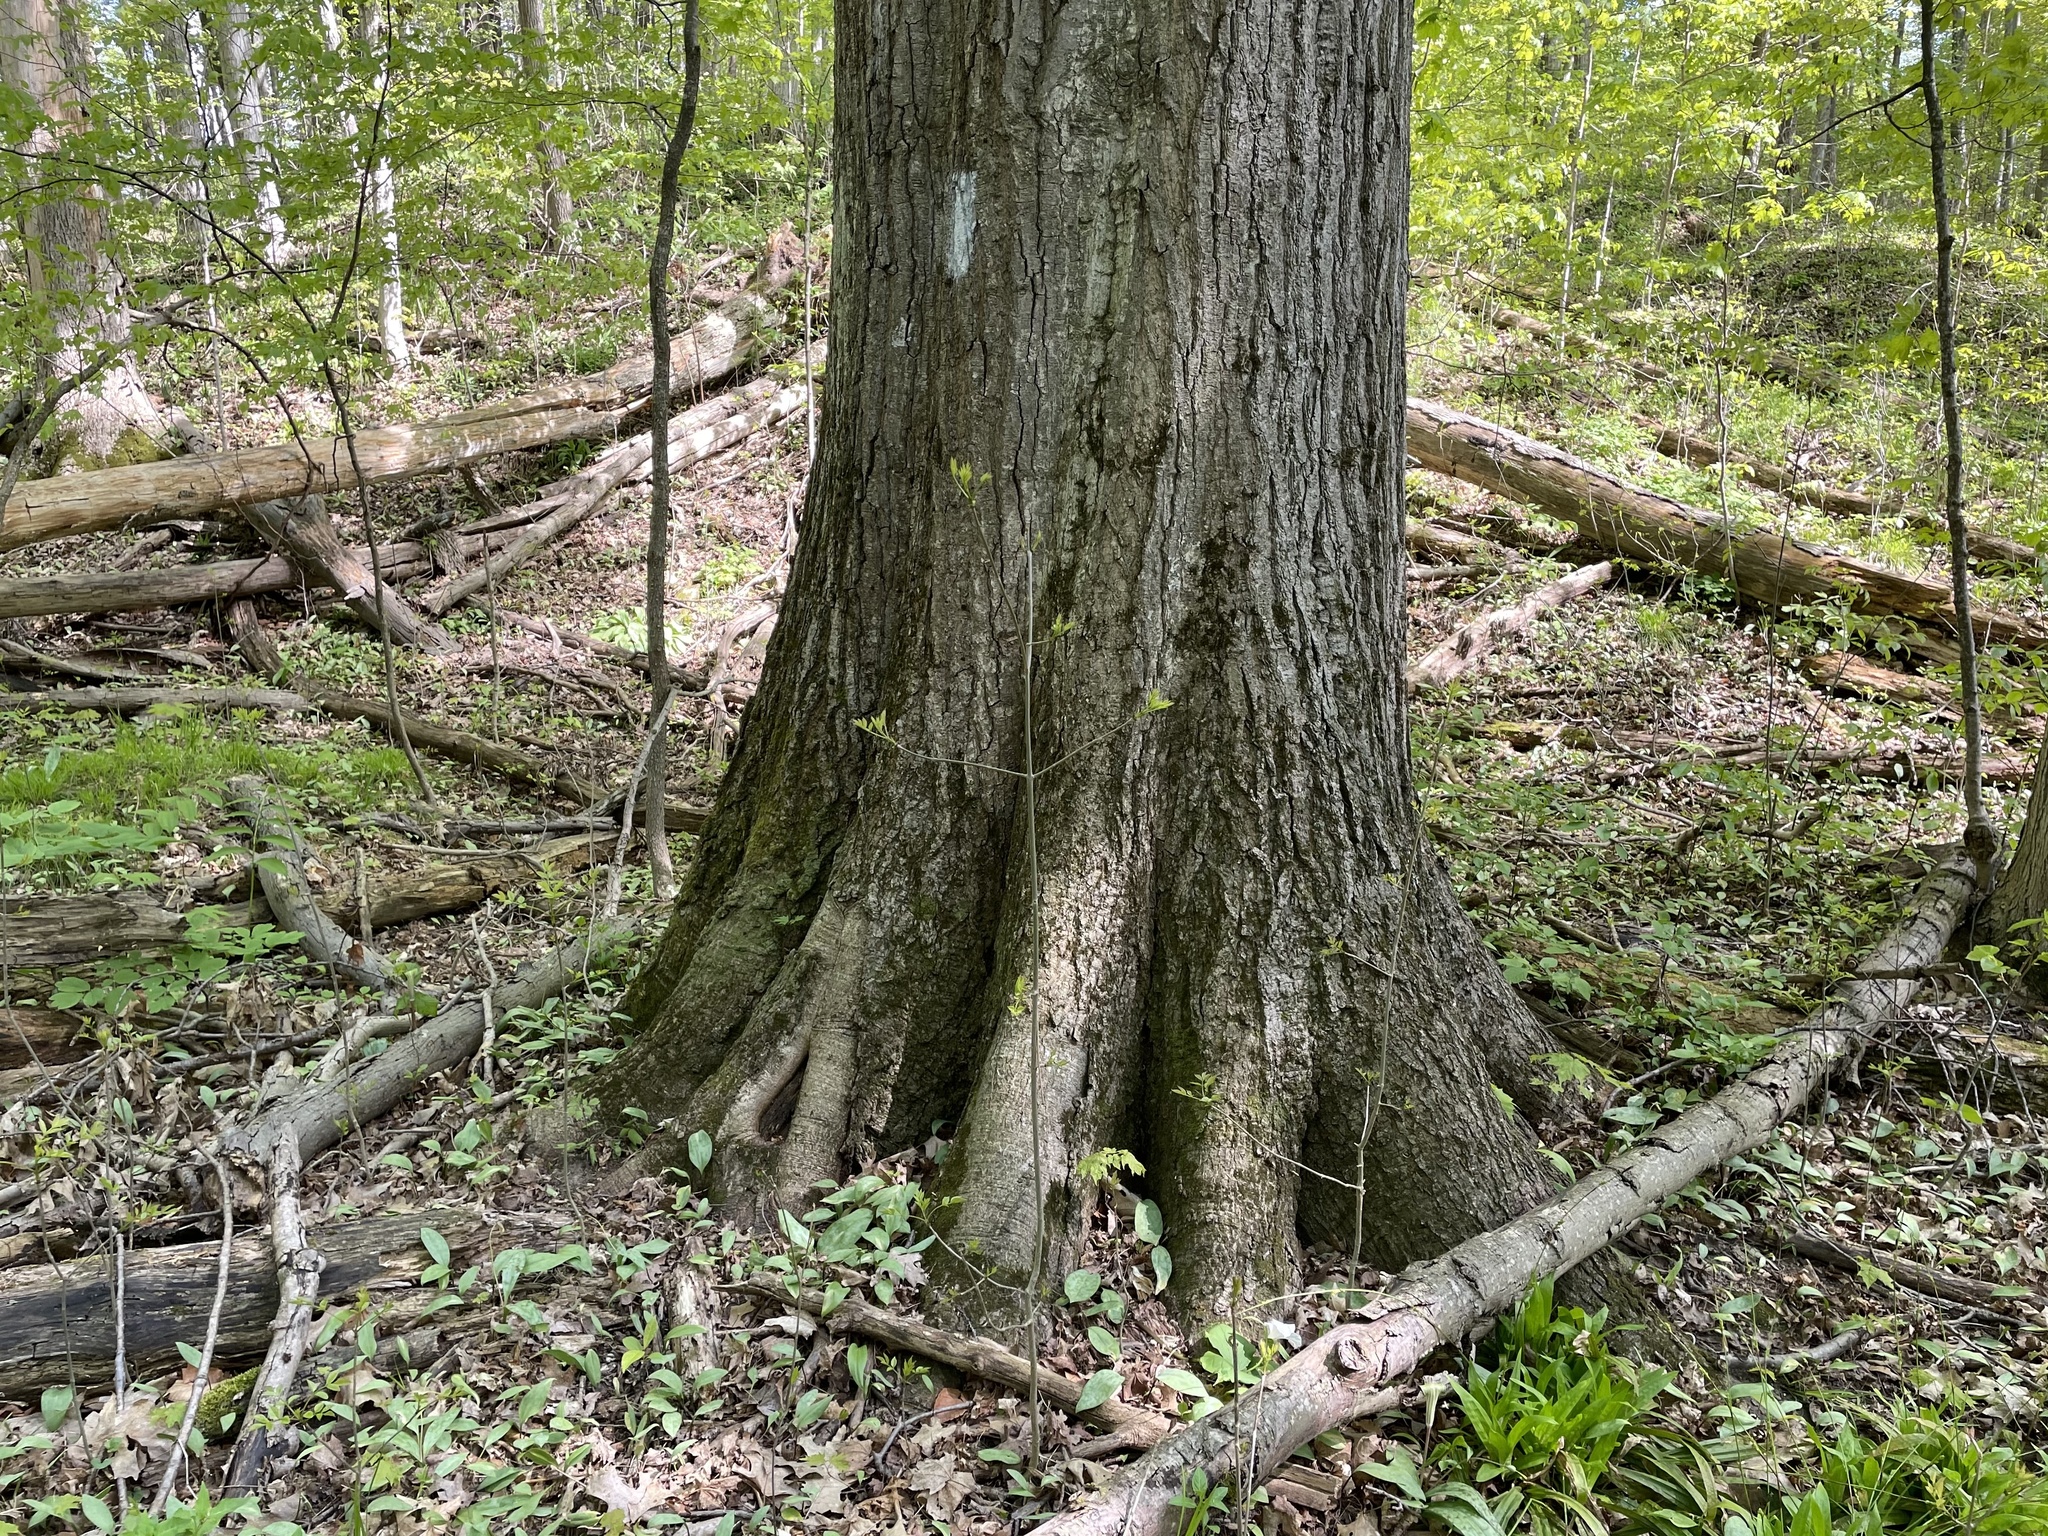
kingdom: Plantae
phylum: Tracheophyta
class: Magnoliopsida
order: Fagales
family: Fagaceae
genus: Quercus
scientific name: Quercus rubra
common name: Red oak
